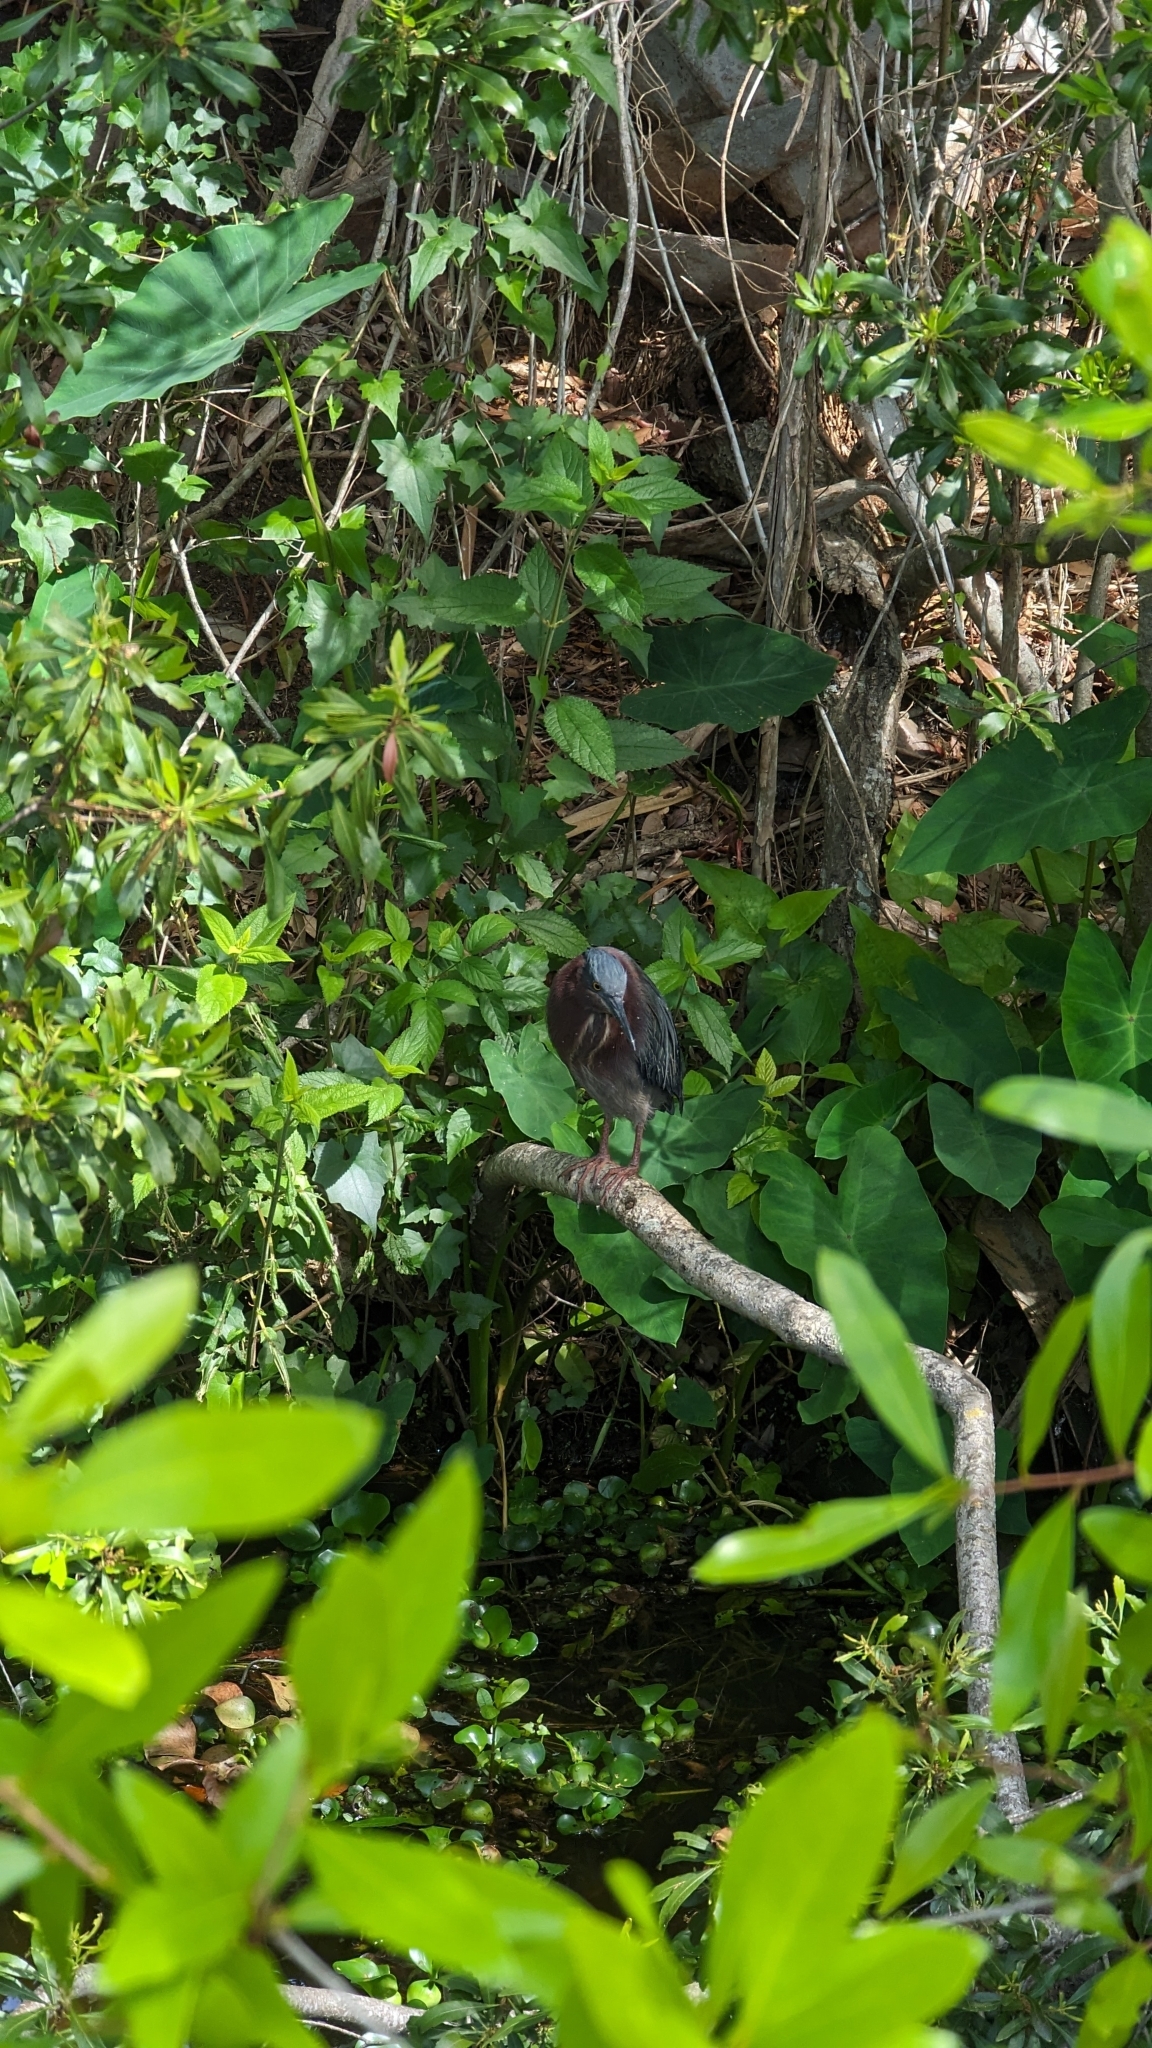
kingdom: Animalia
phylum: Chordata
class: Aves
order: Pelecaniformes
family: Ardeidae
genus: Butorides
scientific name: Butorides virescens
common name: Green heron
